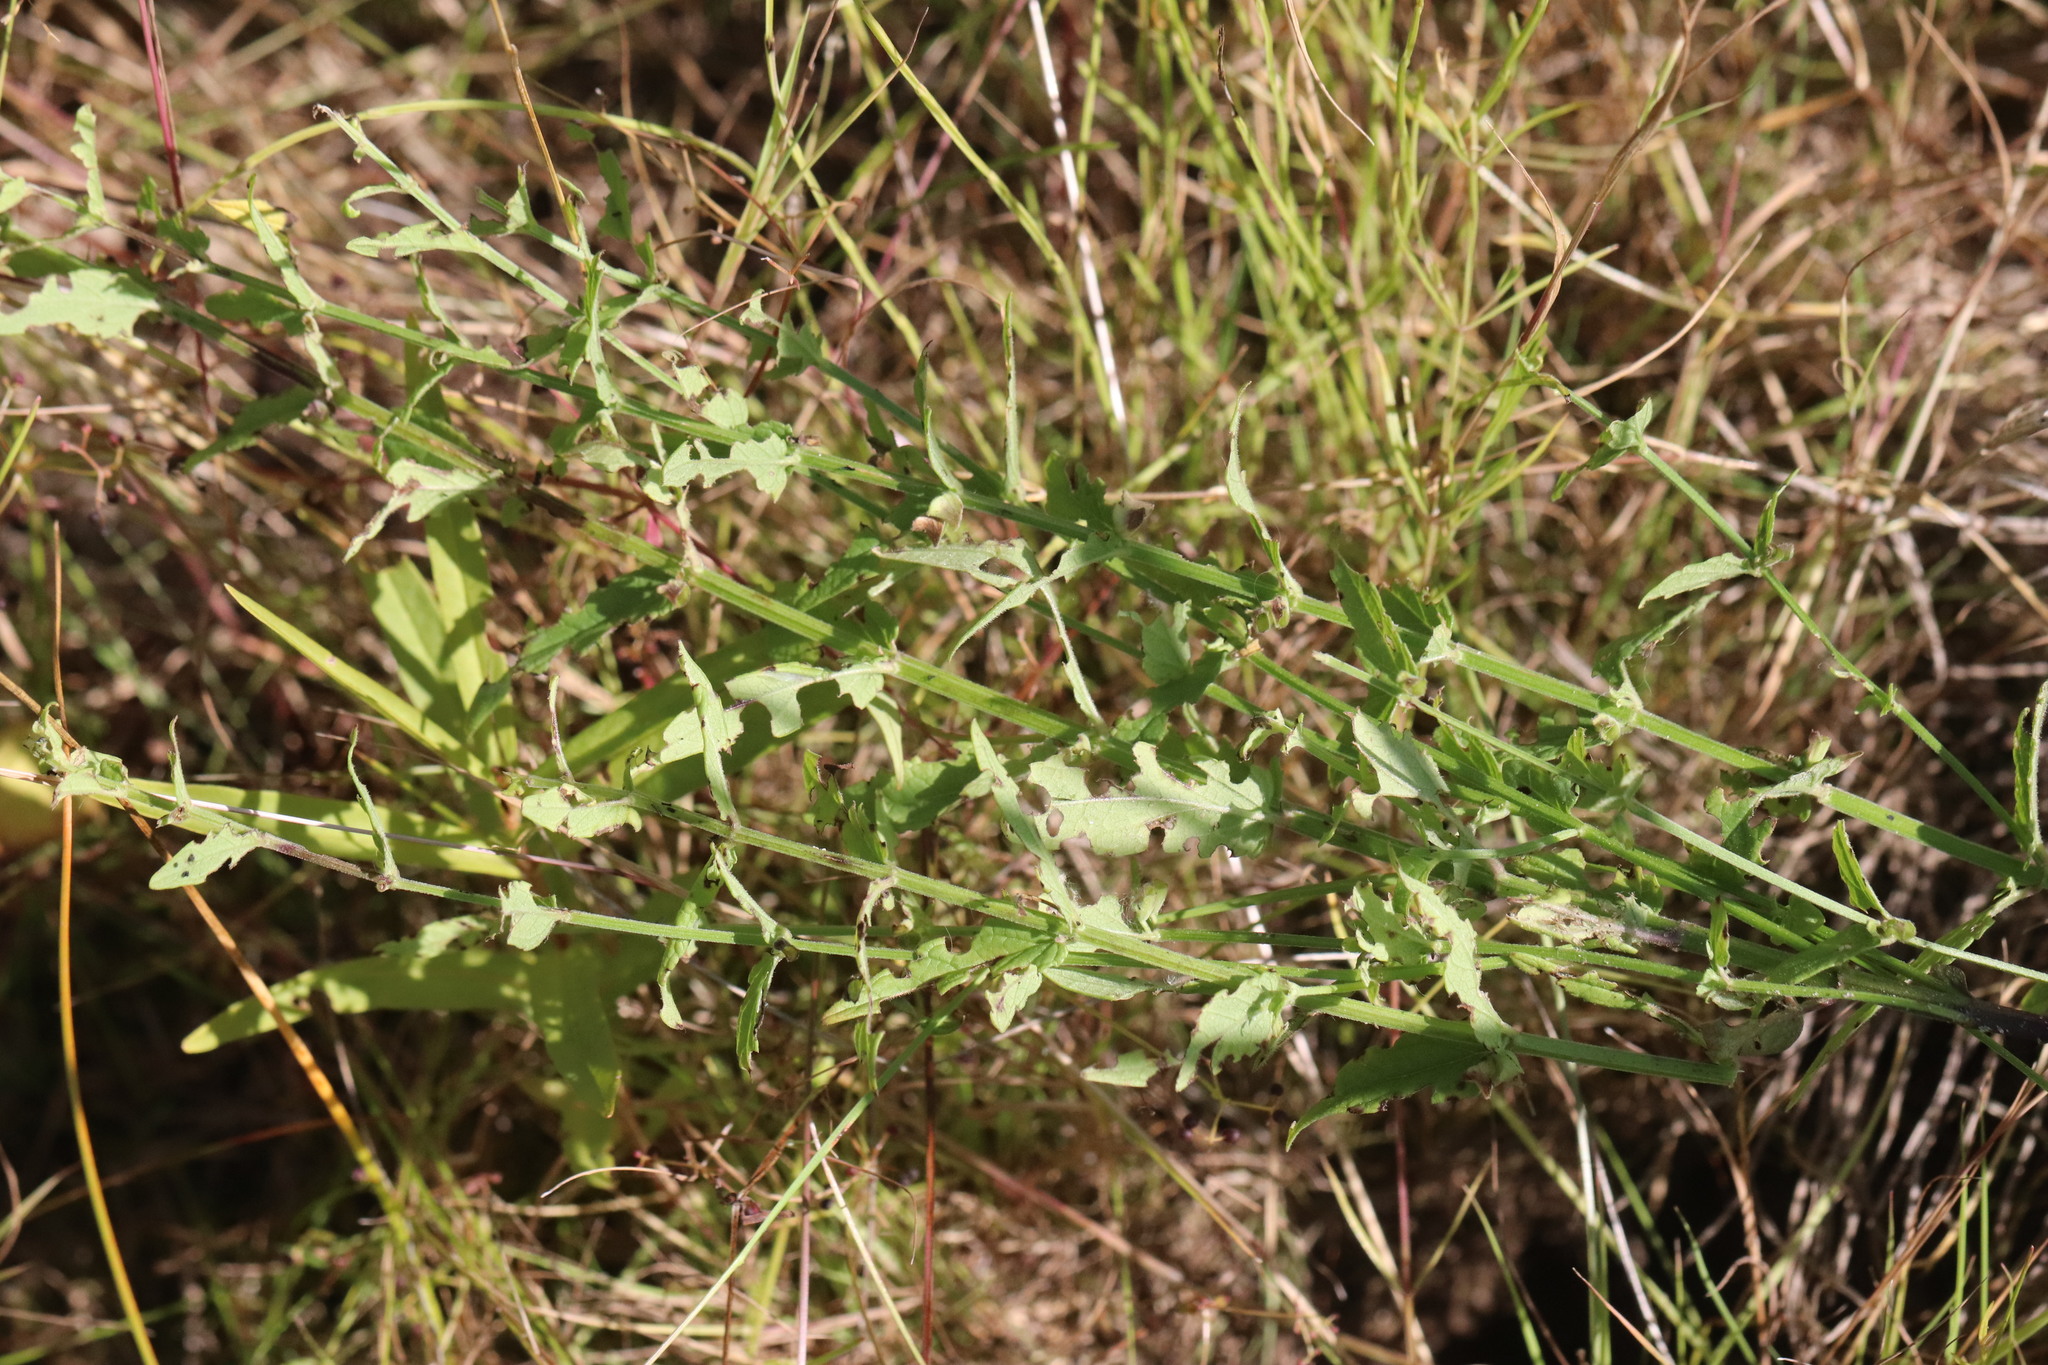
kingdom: Plantae
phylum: Tracheophyta
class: Magnoliopsida
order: Lamiales
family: Lamiaceae
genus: Scutellaria
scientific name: Scutellaria galericulata
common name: Skullcap
